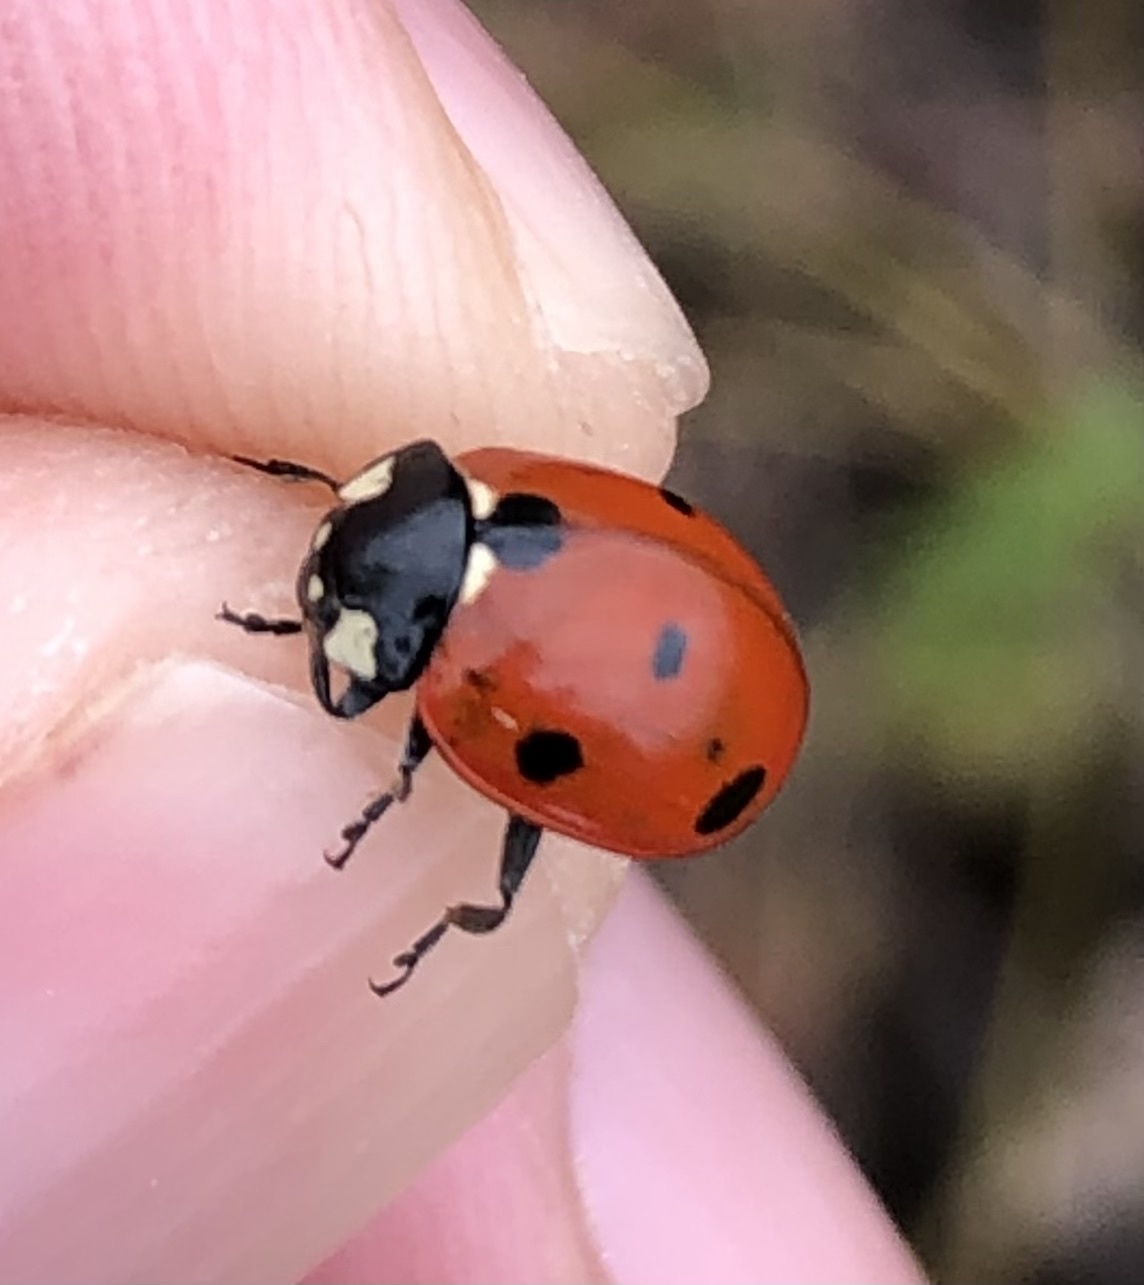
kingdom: Animalia
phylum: Arthropoda
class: Insecta
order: Coleoptera
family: Coccinellidae
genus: Coccinella
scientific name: Coccinella septempunctata
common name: Sevenspotted lady beetle
